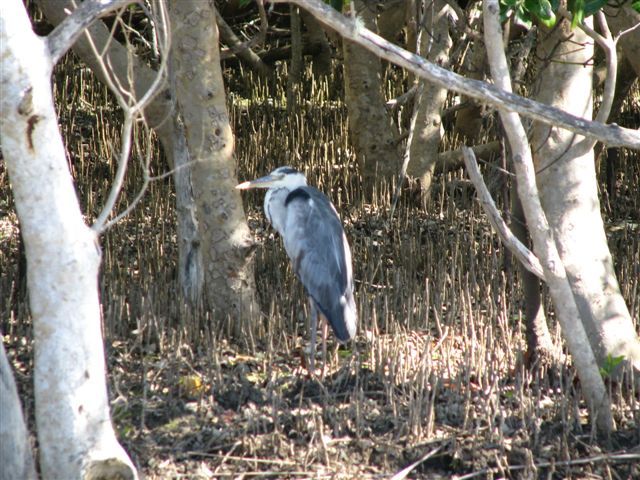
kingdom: Animalia
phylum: Chordata
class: Aves
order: Pelecaniformes
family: Ardeidae
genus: Ardea
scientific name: Ardea cinerea
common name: Grey heron
